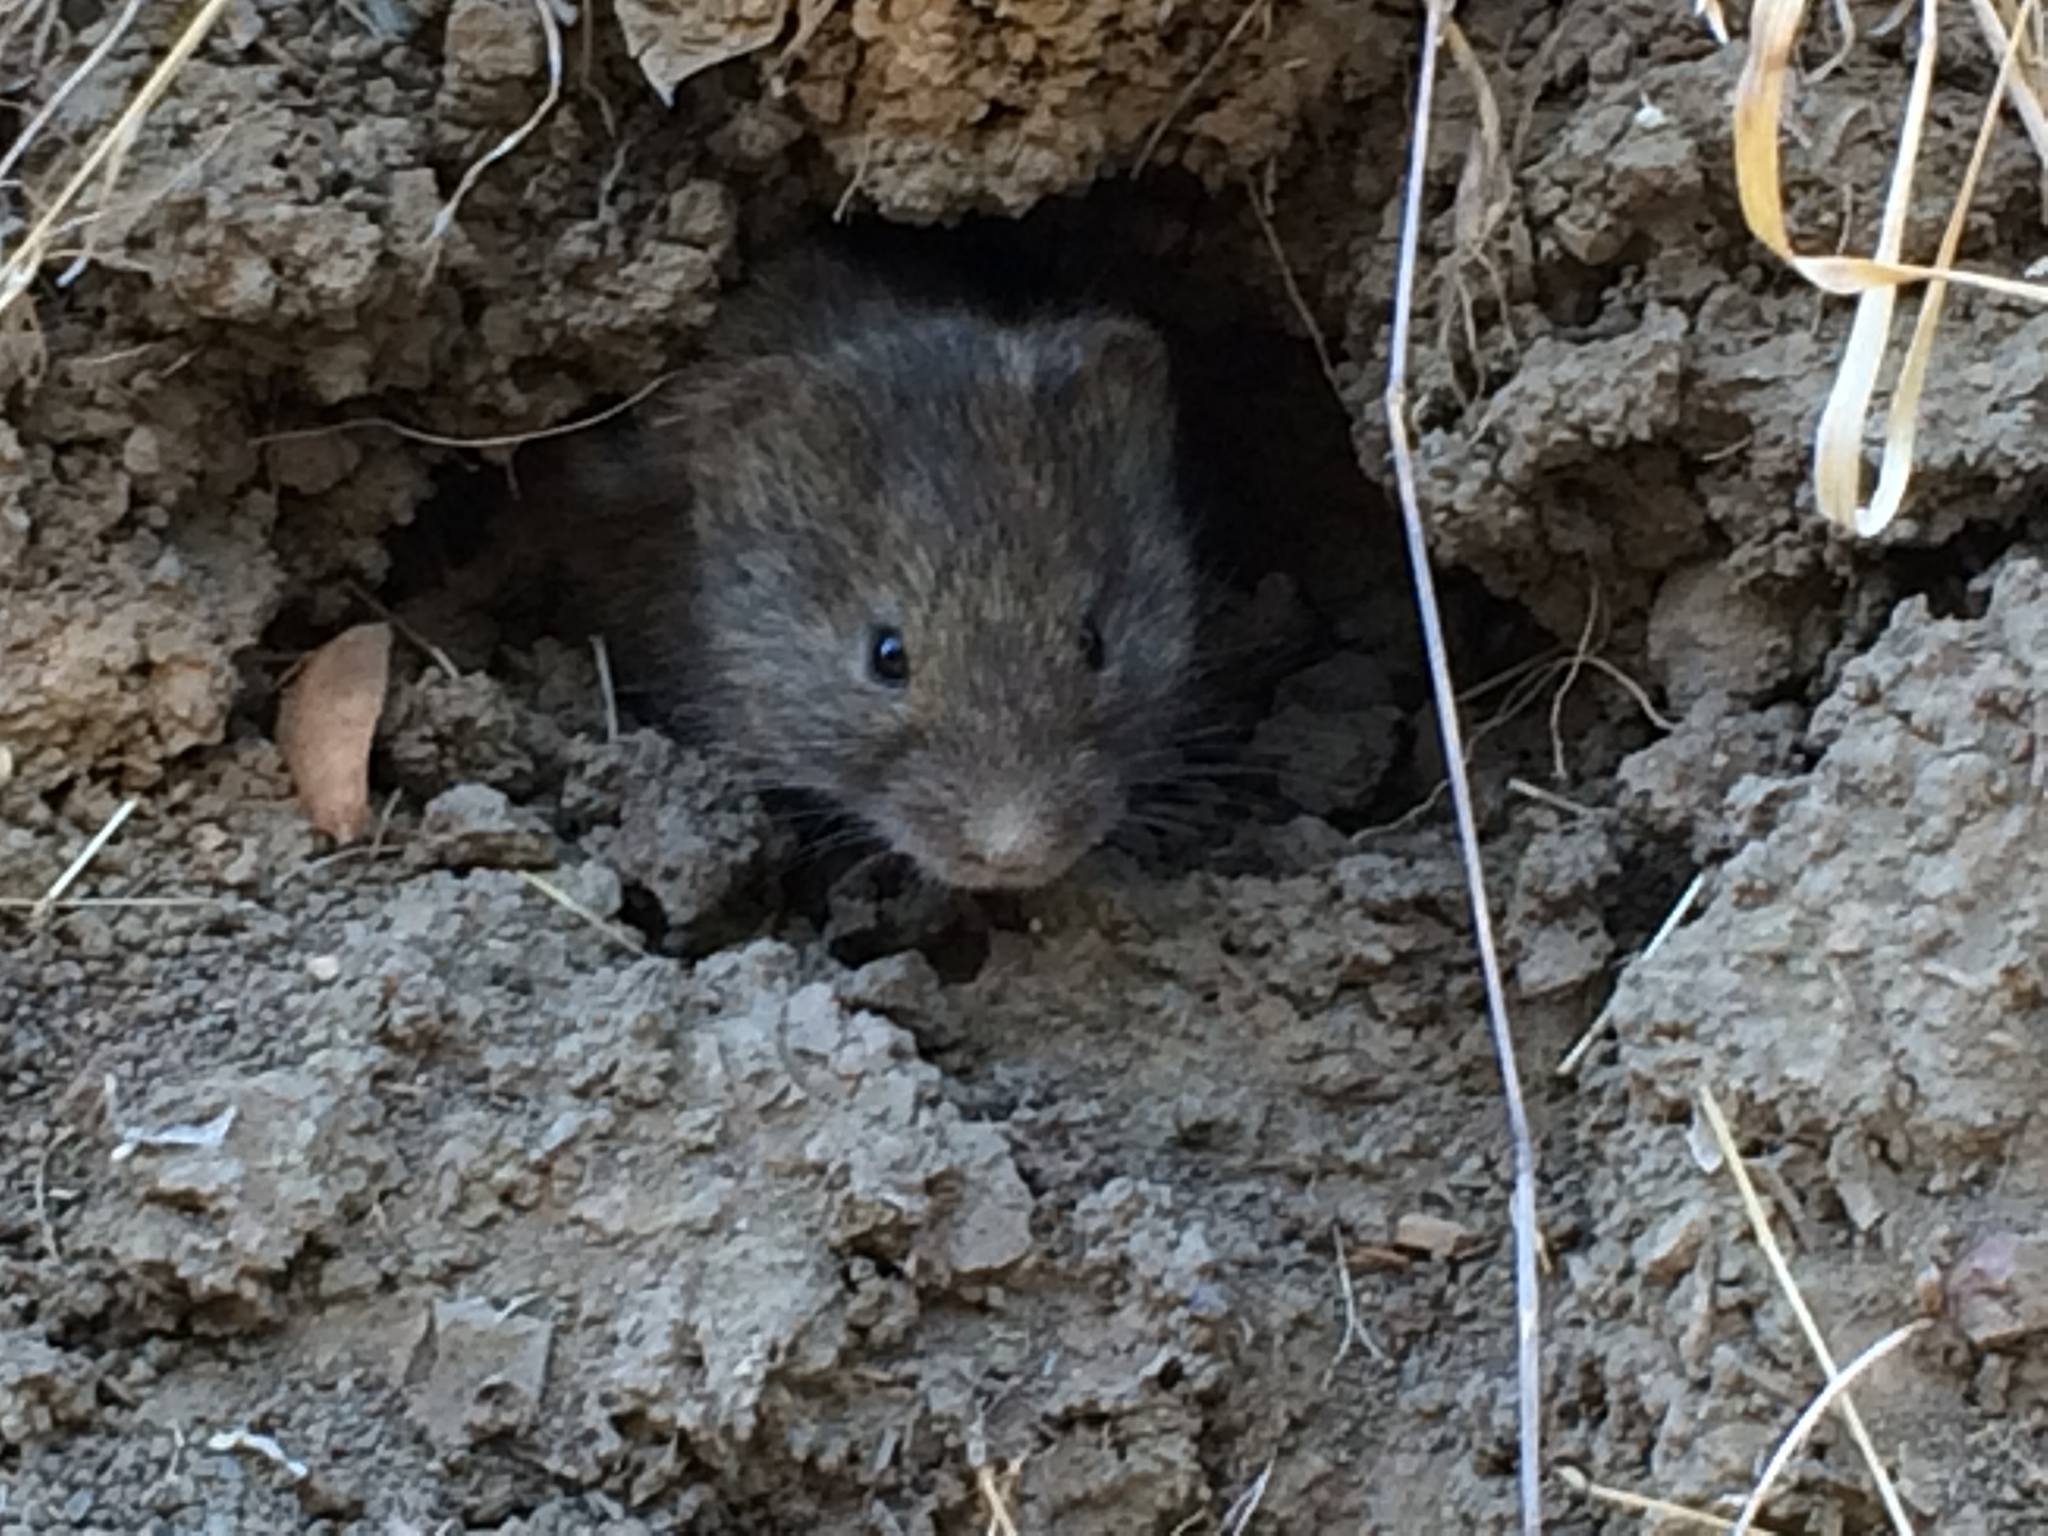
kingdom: Animalia
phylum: Chordata
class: Mammalia
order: Rodentia
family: Cricetidae
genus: Microtus
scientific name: Microtus californicus
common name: California vole
